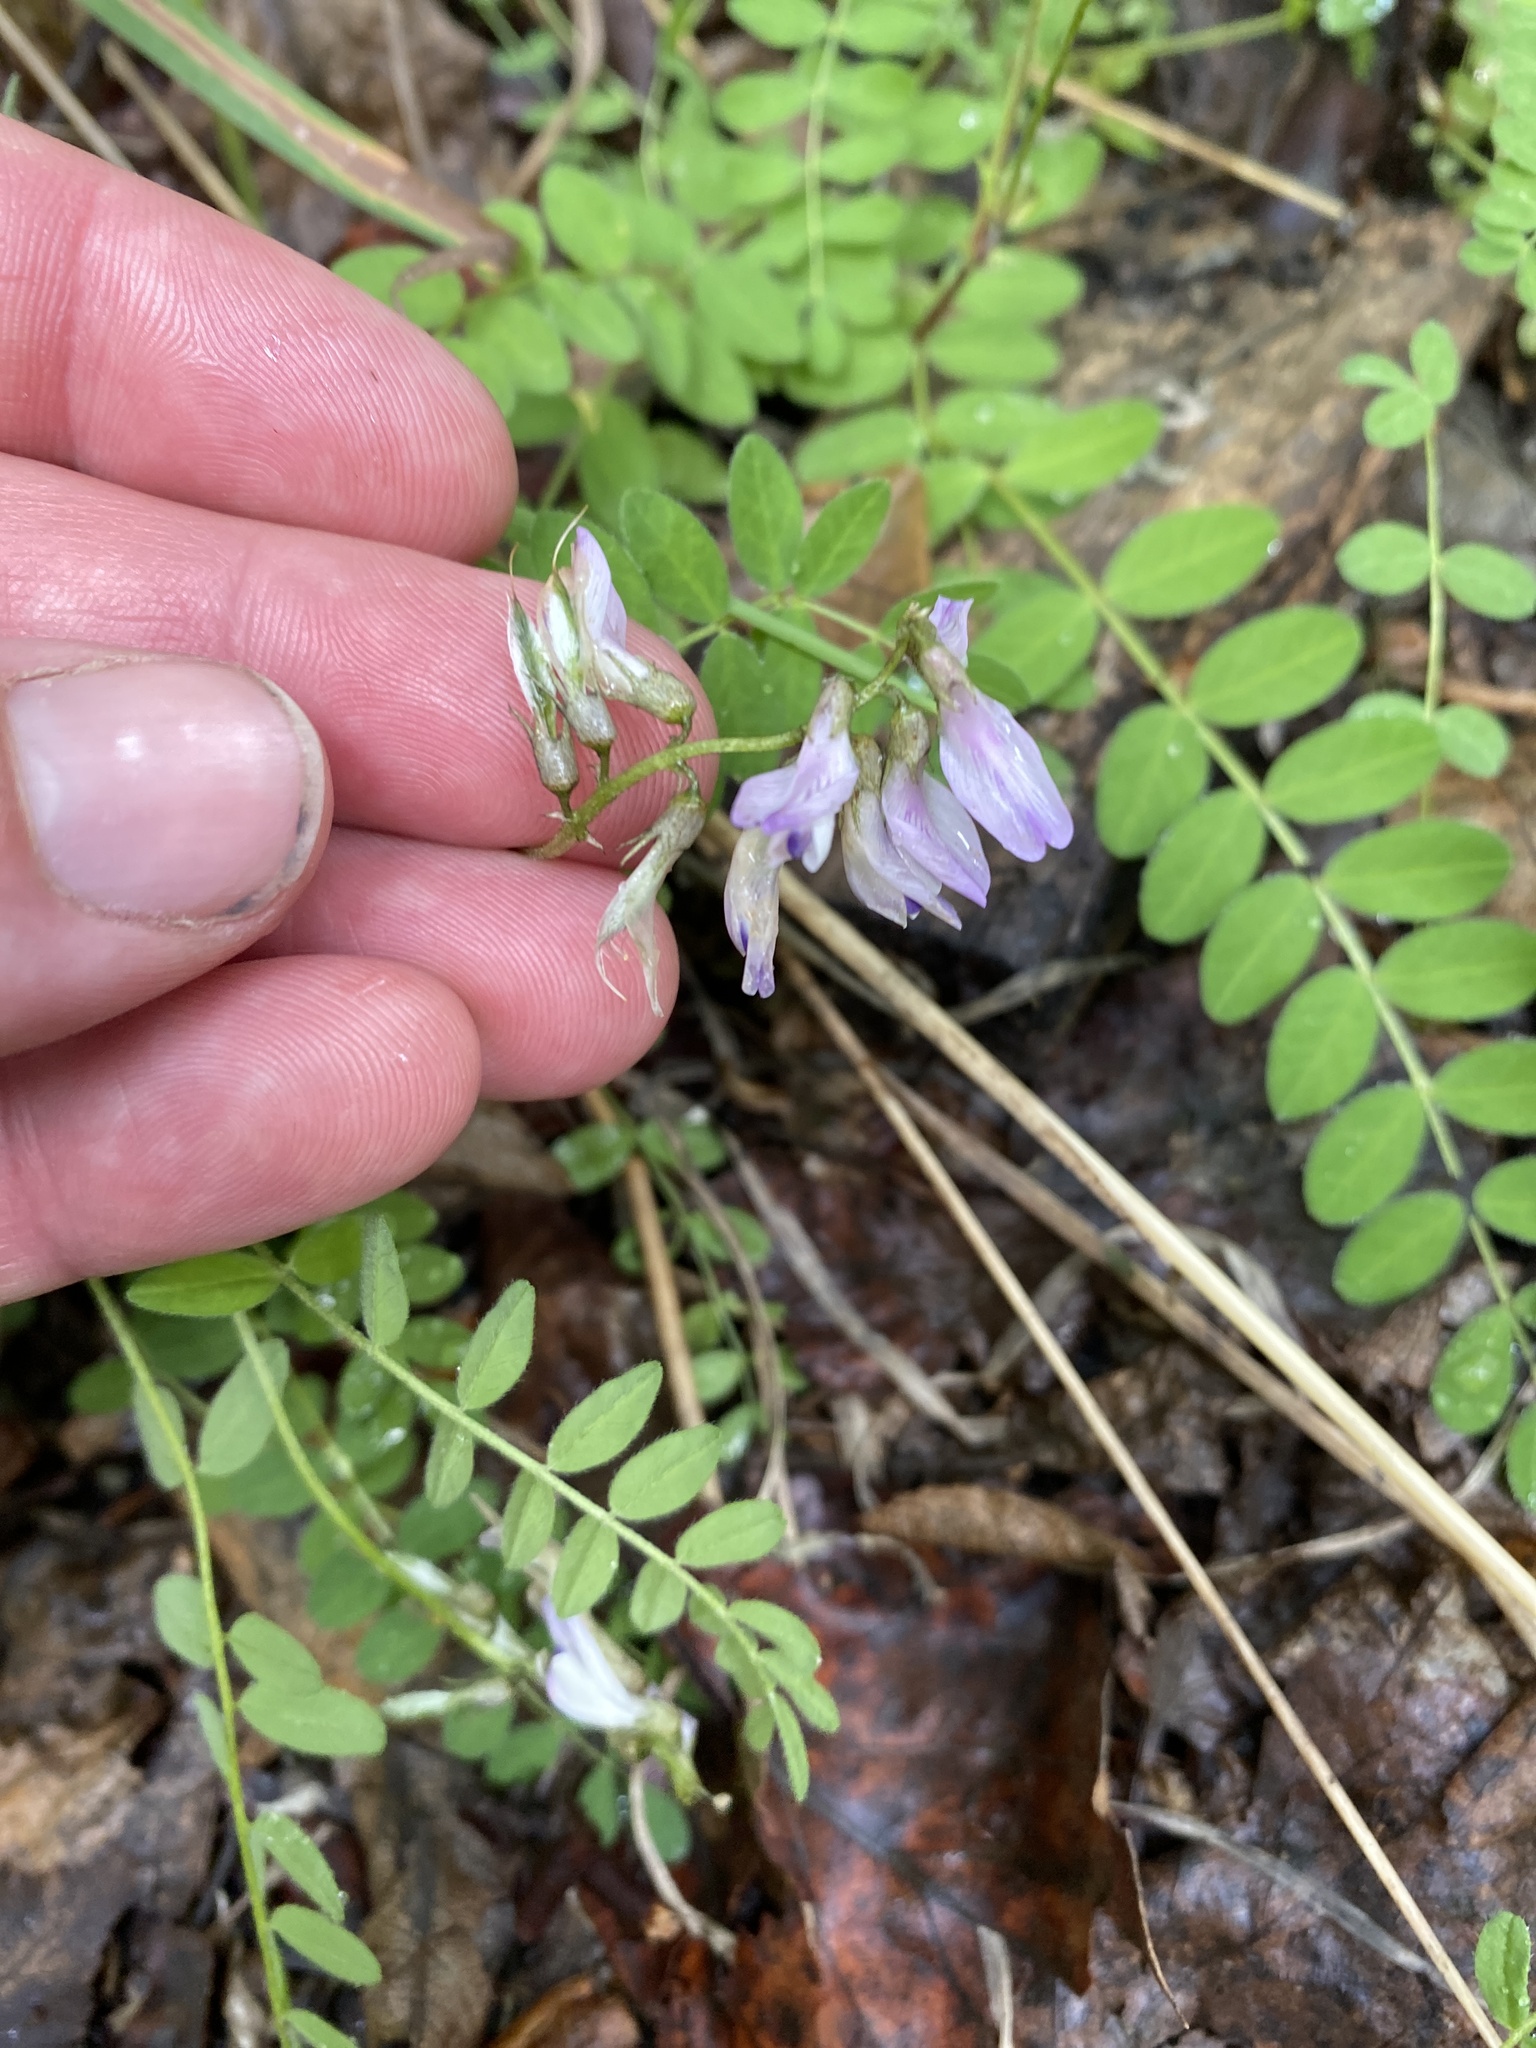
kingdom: Plantae
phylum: Tracheophyta
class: Magnoliopsida
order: Fabales
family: Fabaceae
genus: Astragalus
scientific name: Astragalus alpinus
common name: Alpine milk-vetch
